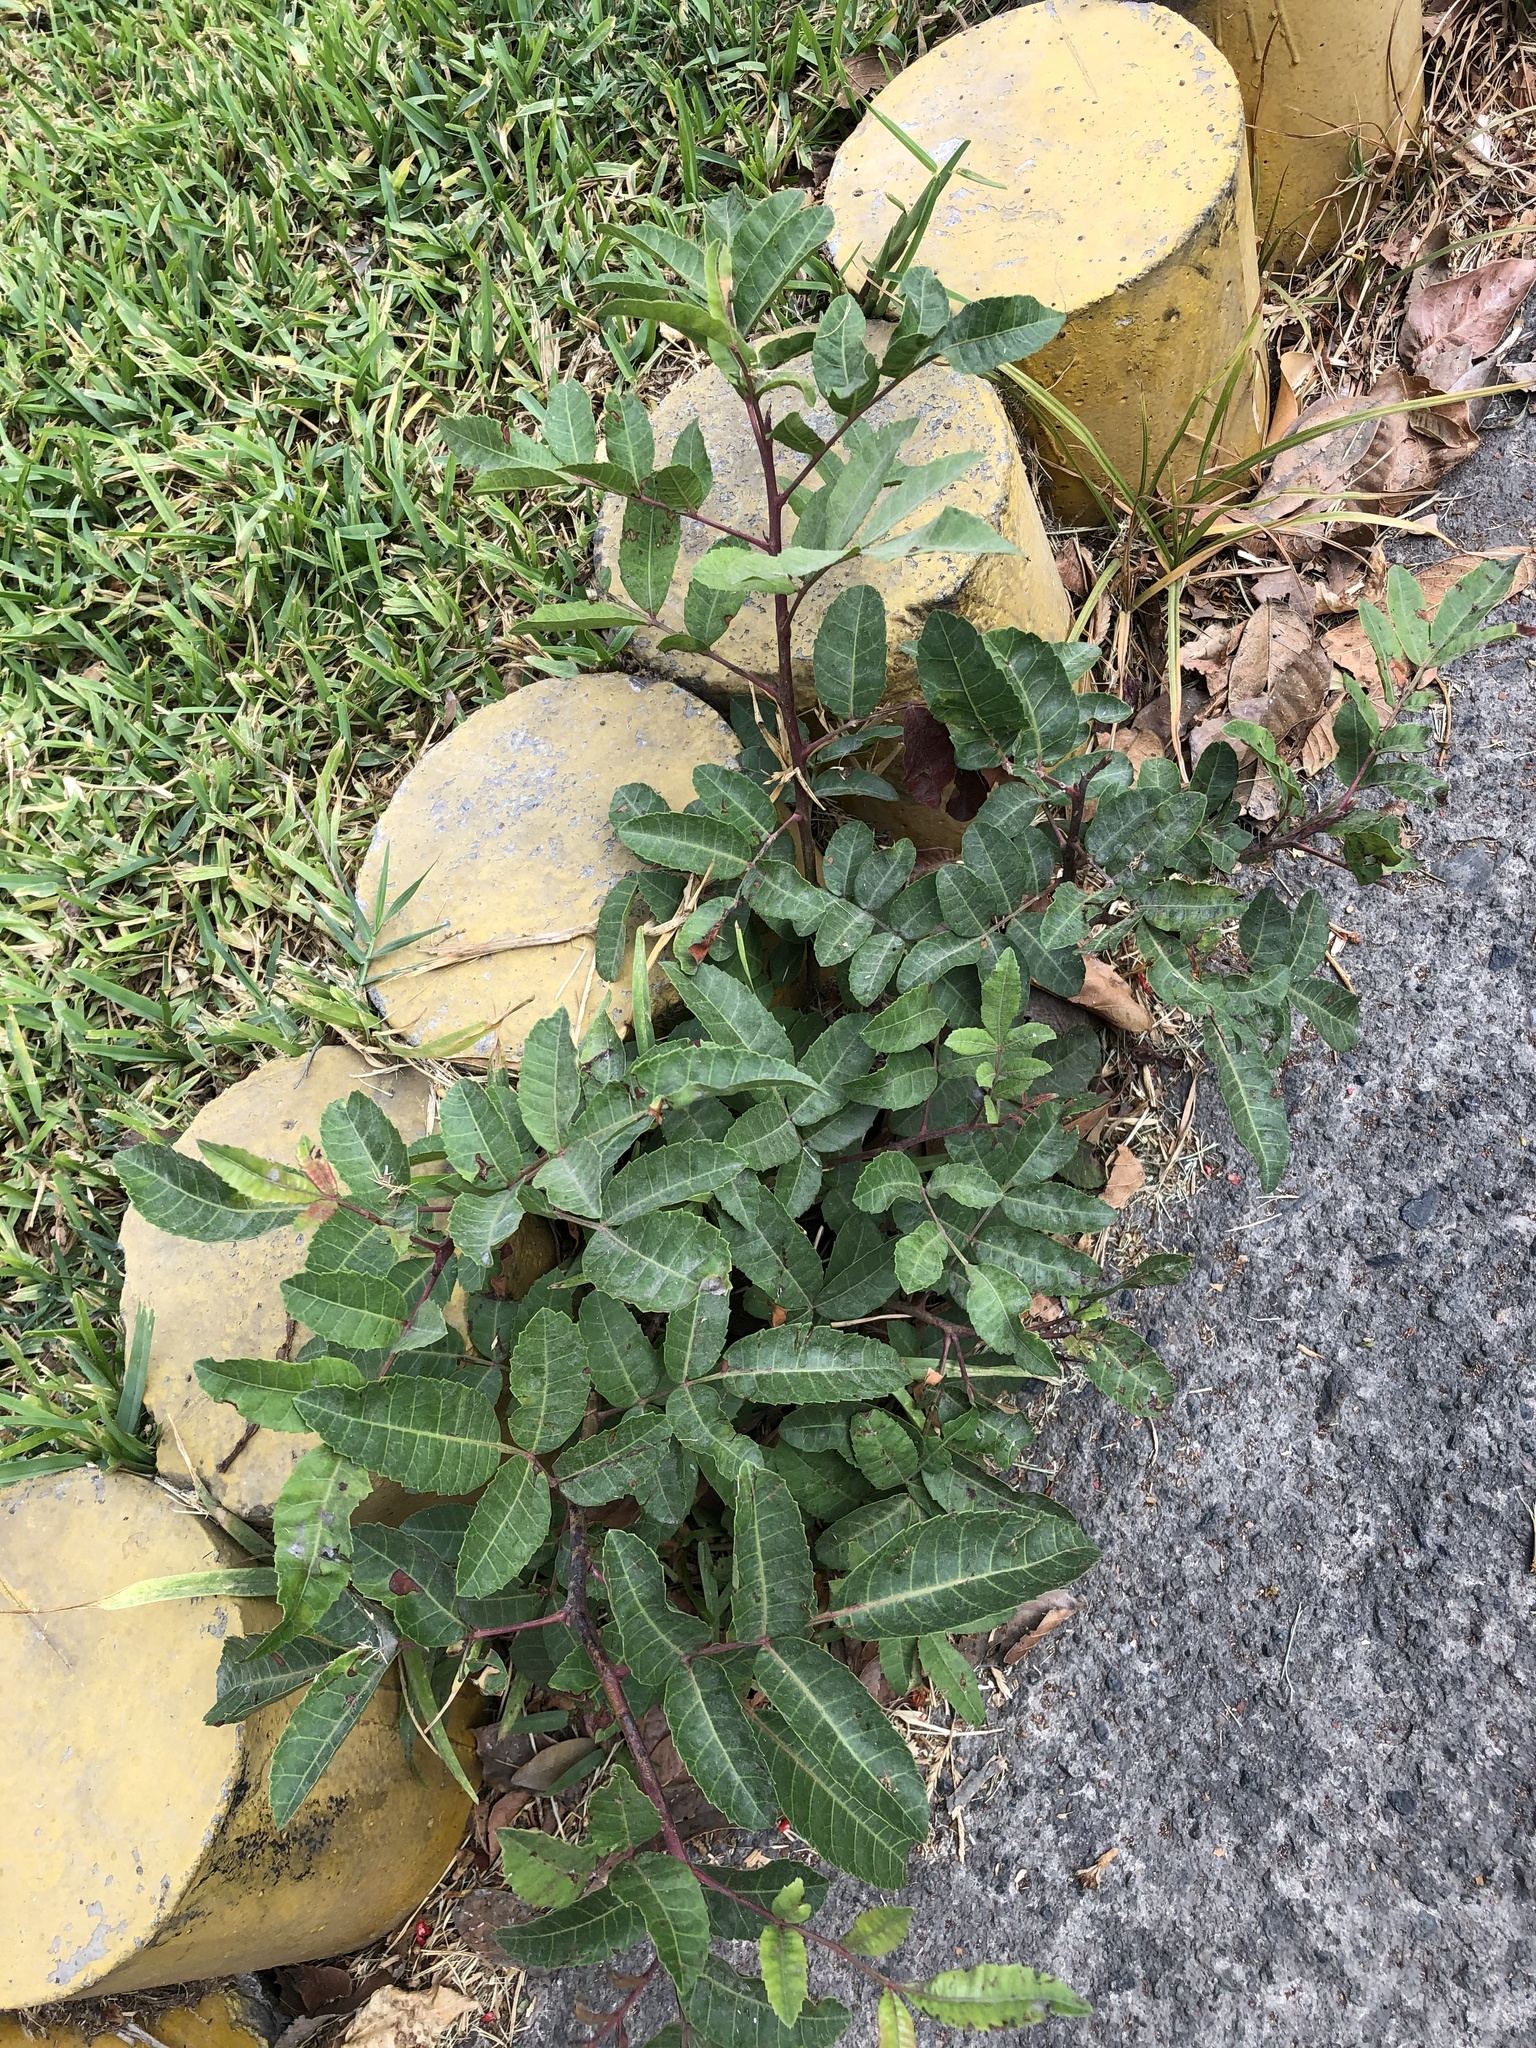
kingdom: Plantae
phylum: Tracheophyta
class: Magnoliopsida
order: Sapindales
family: Anacardiaceae
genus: Schinus
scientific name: Schinus terebinthifolia
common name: Brazilian peppertree
